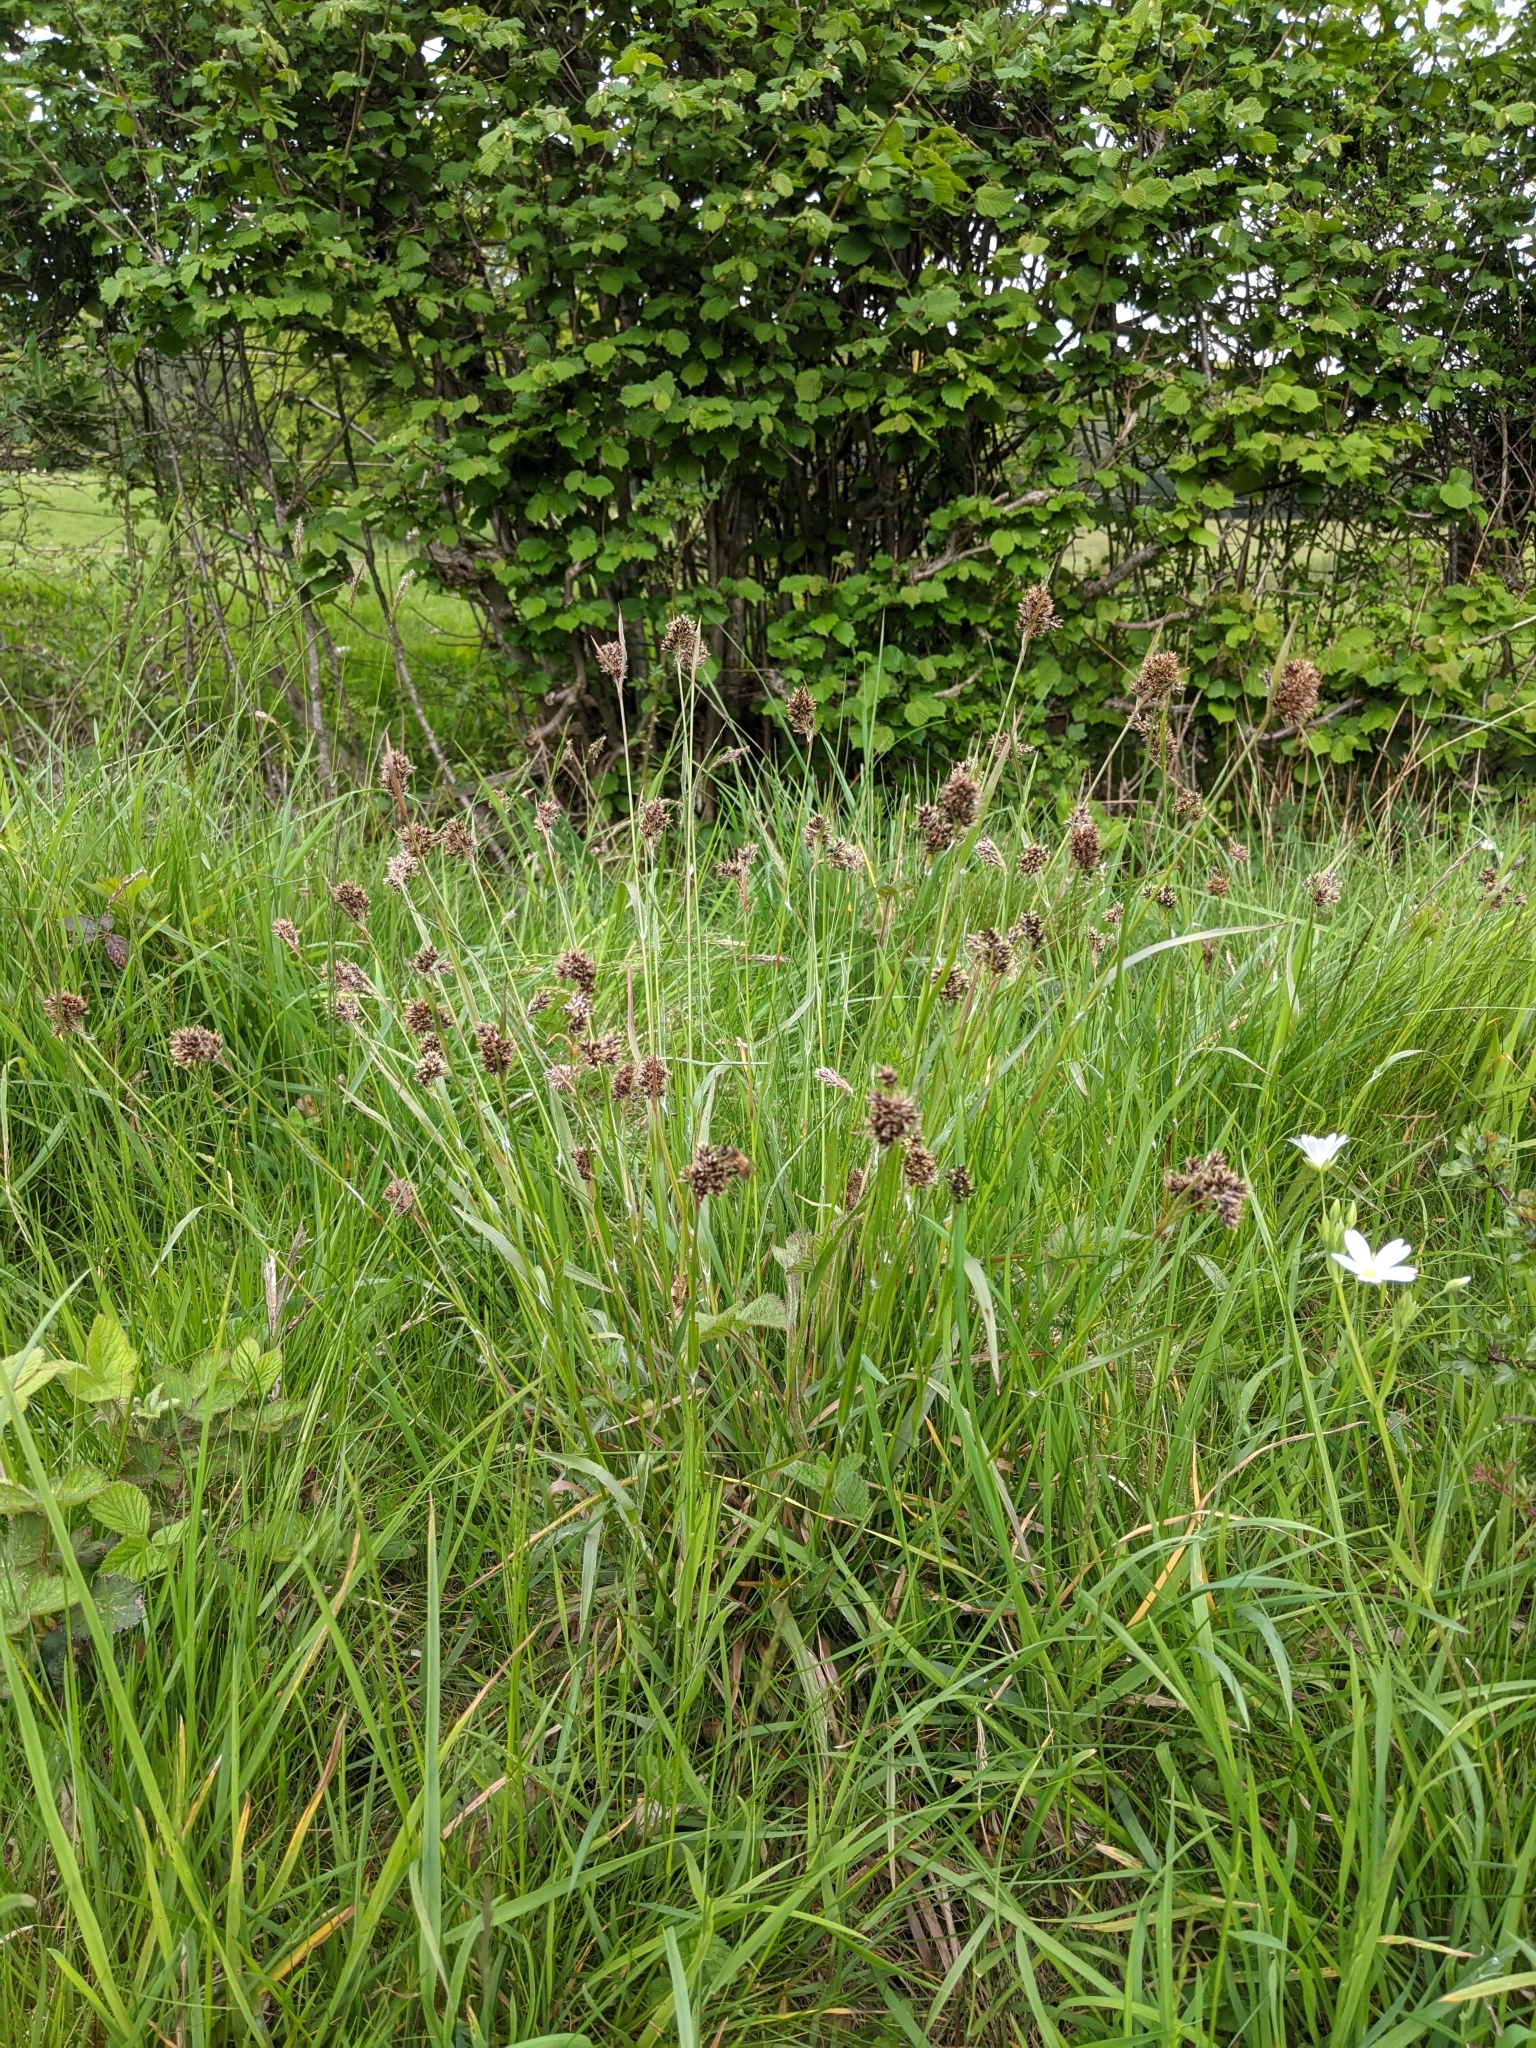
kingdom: Plantae
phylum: Tracheophyta
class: Liliopsida
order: Poales
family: Juncaceae
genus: Luzula
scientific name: Luzula multiflora
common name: Heath wood-rush
